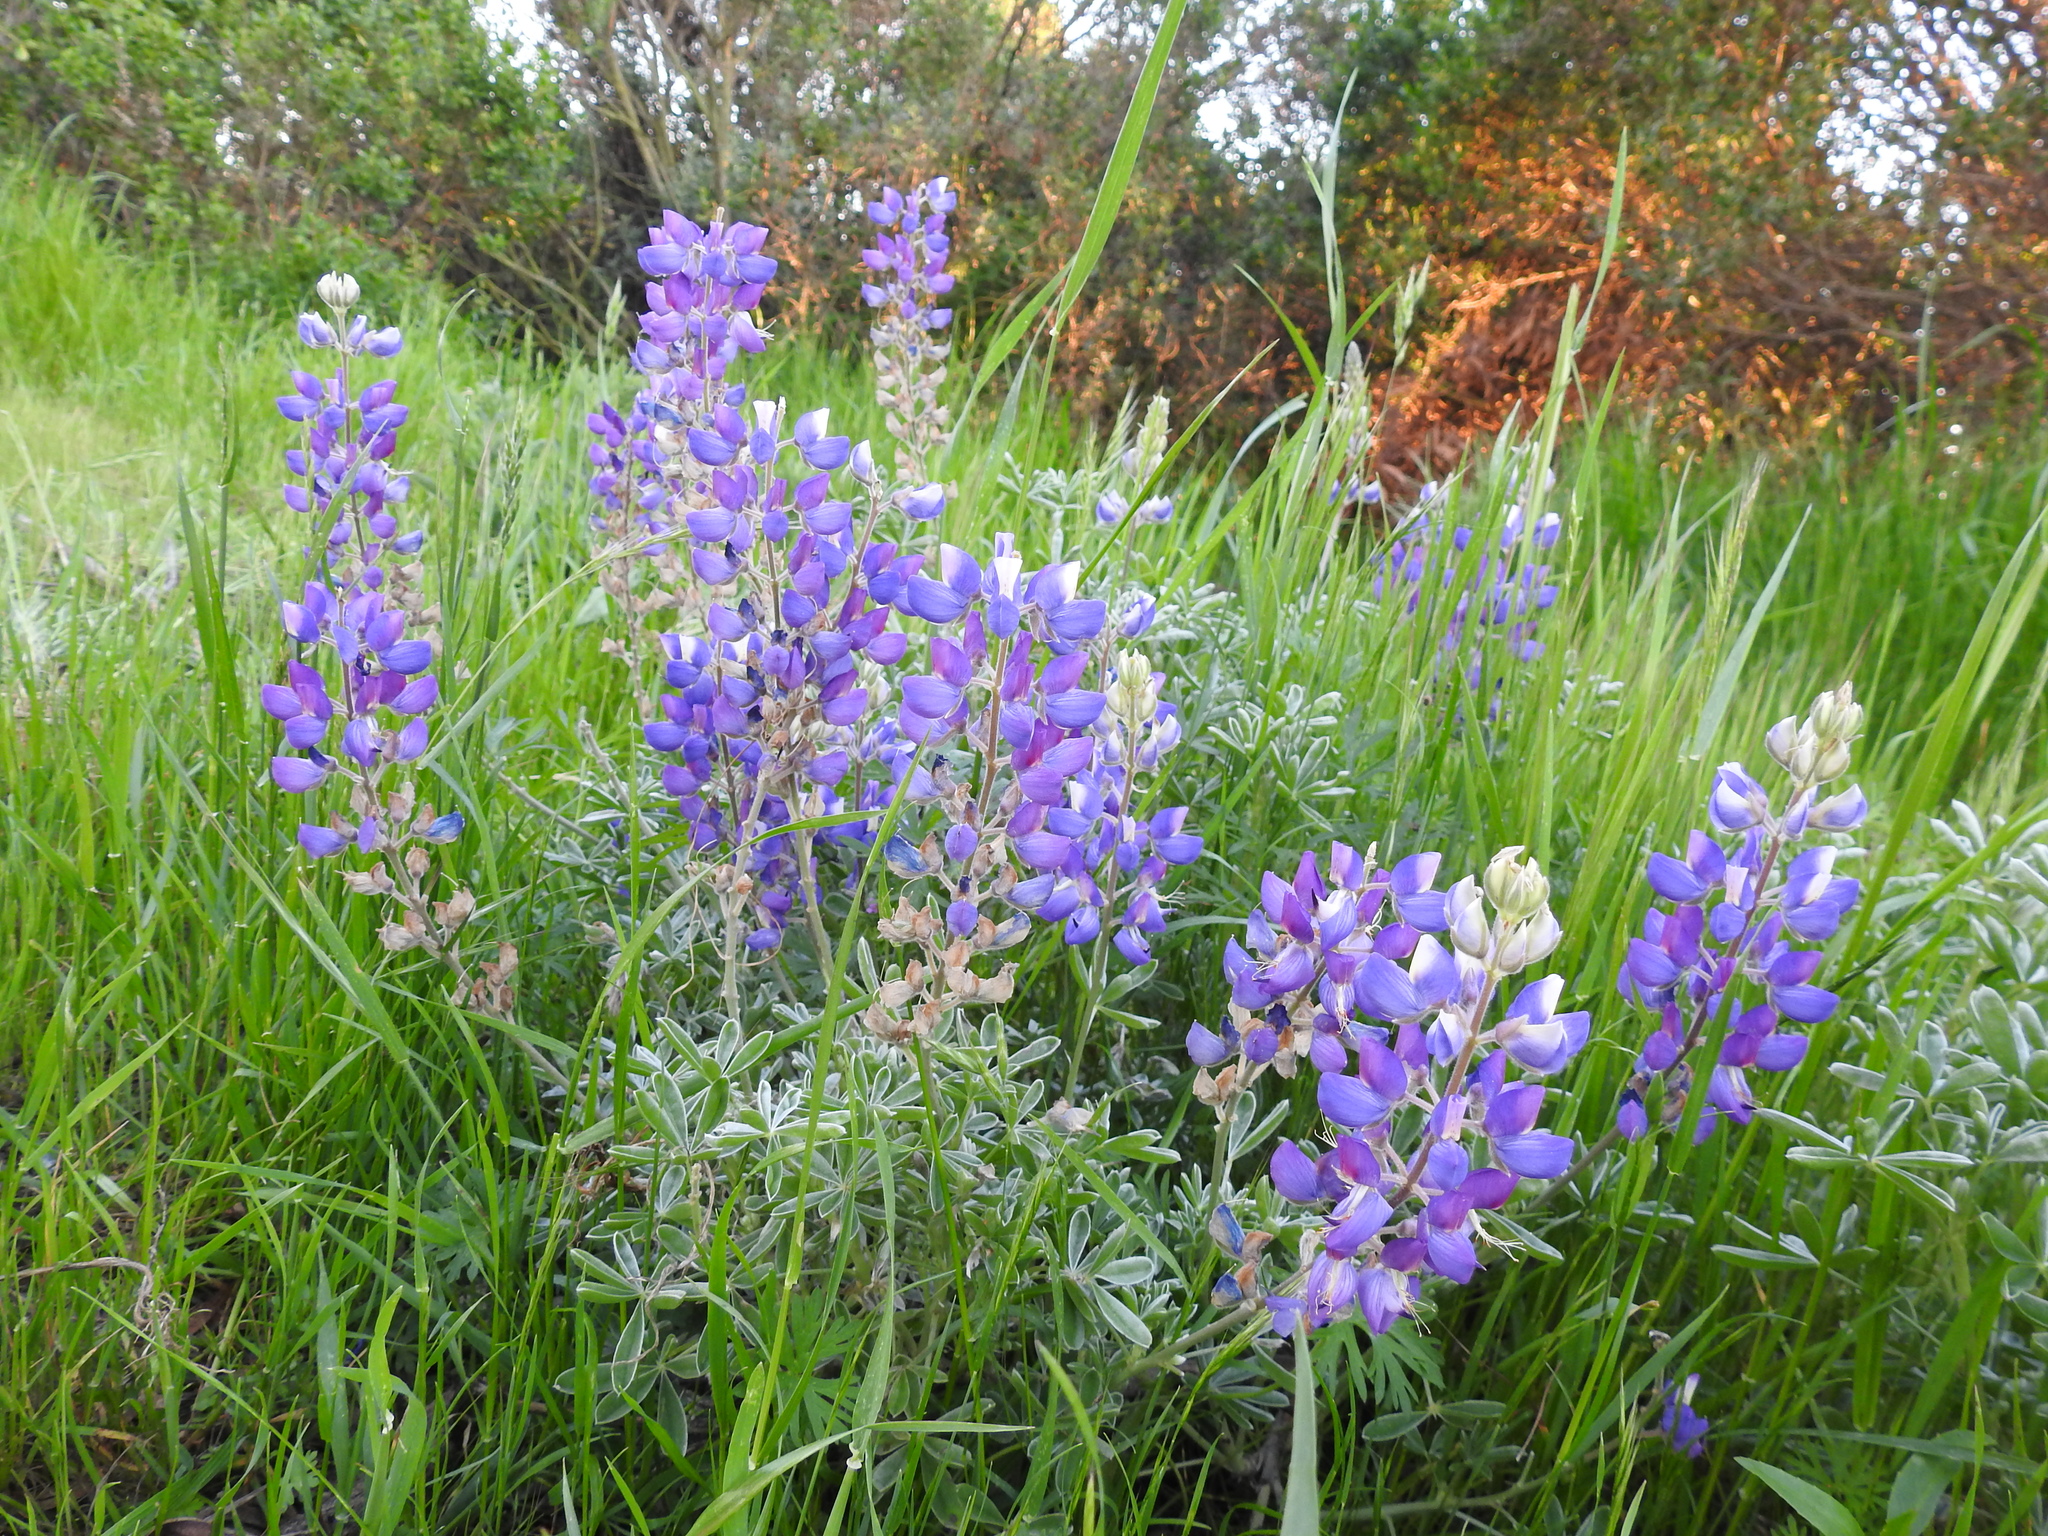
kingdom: Plantae
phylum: Tracheophyta
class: Magnoliopsida
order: Fabales
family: Fabaceae
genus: Lupinus
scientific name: Lupinus albifrons
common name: Foothill lupine
